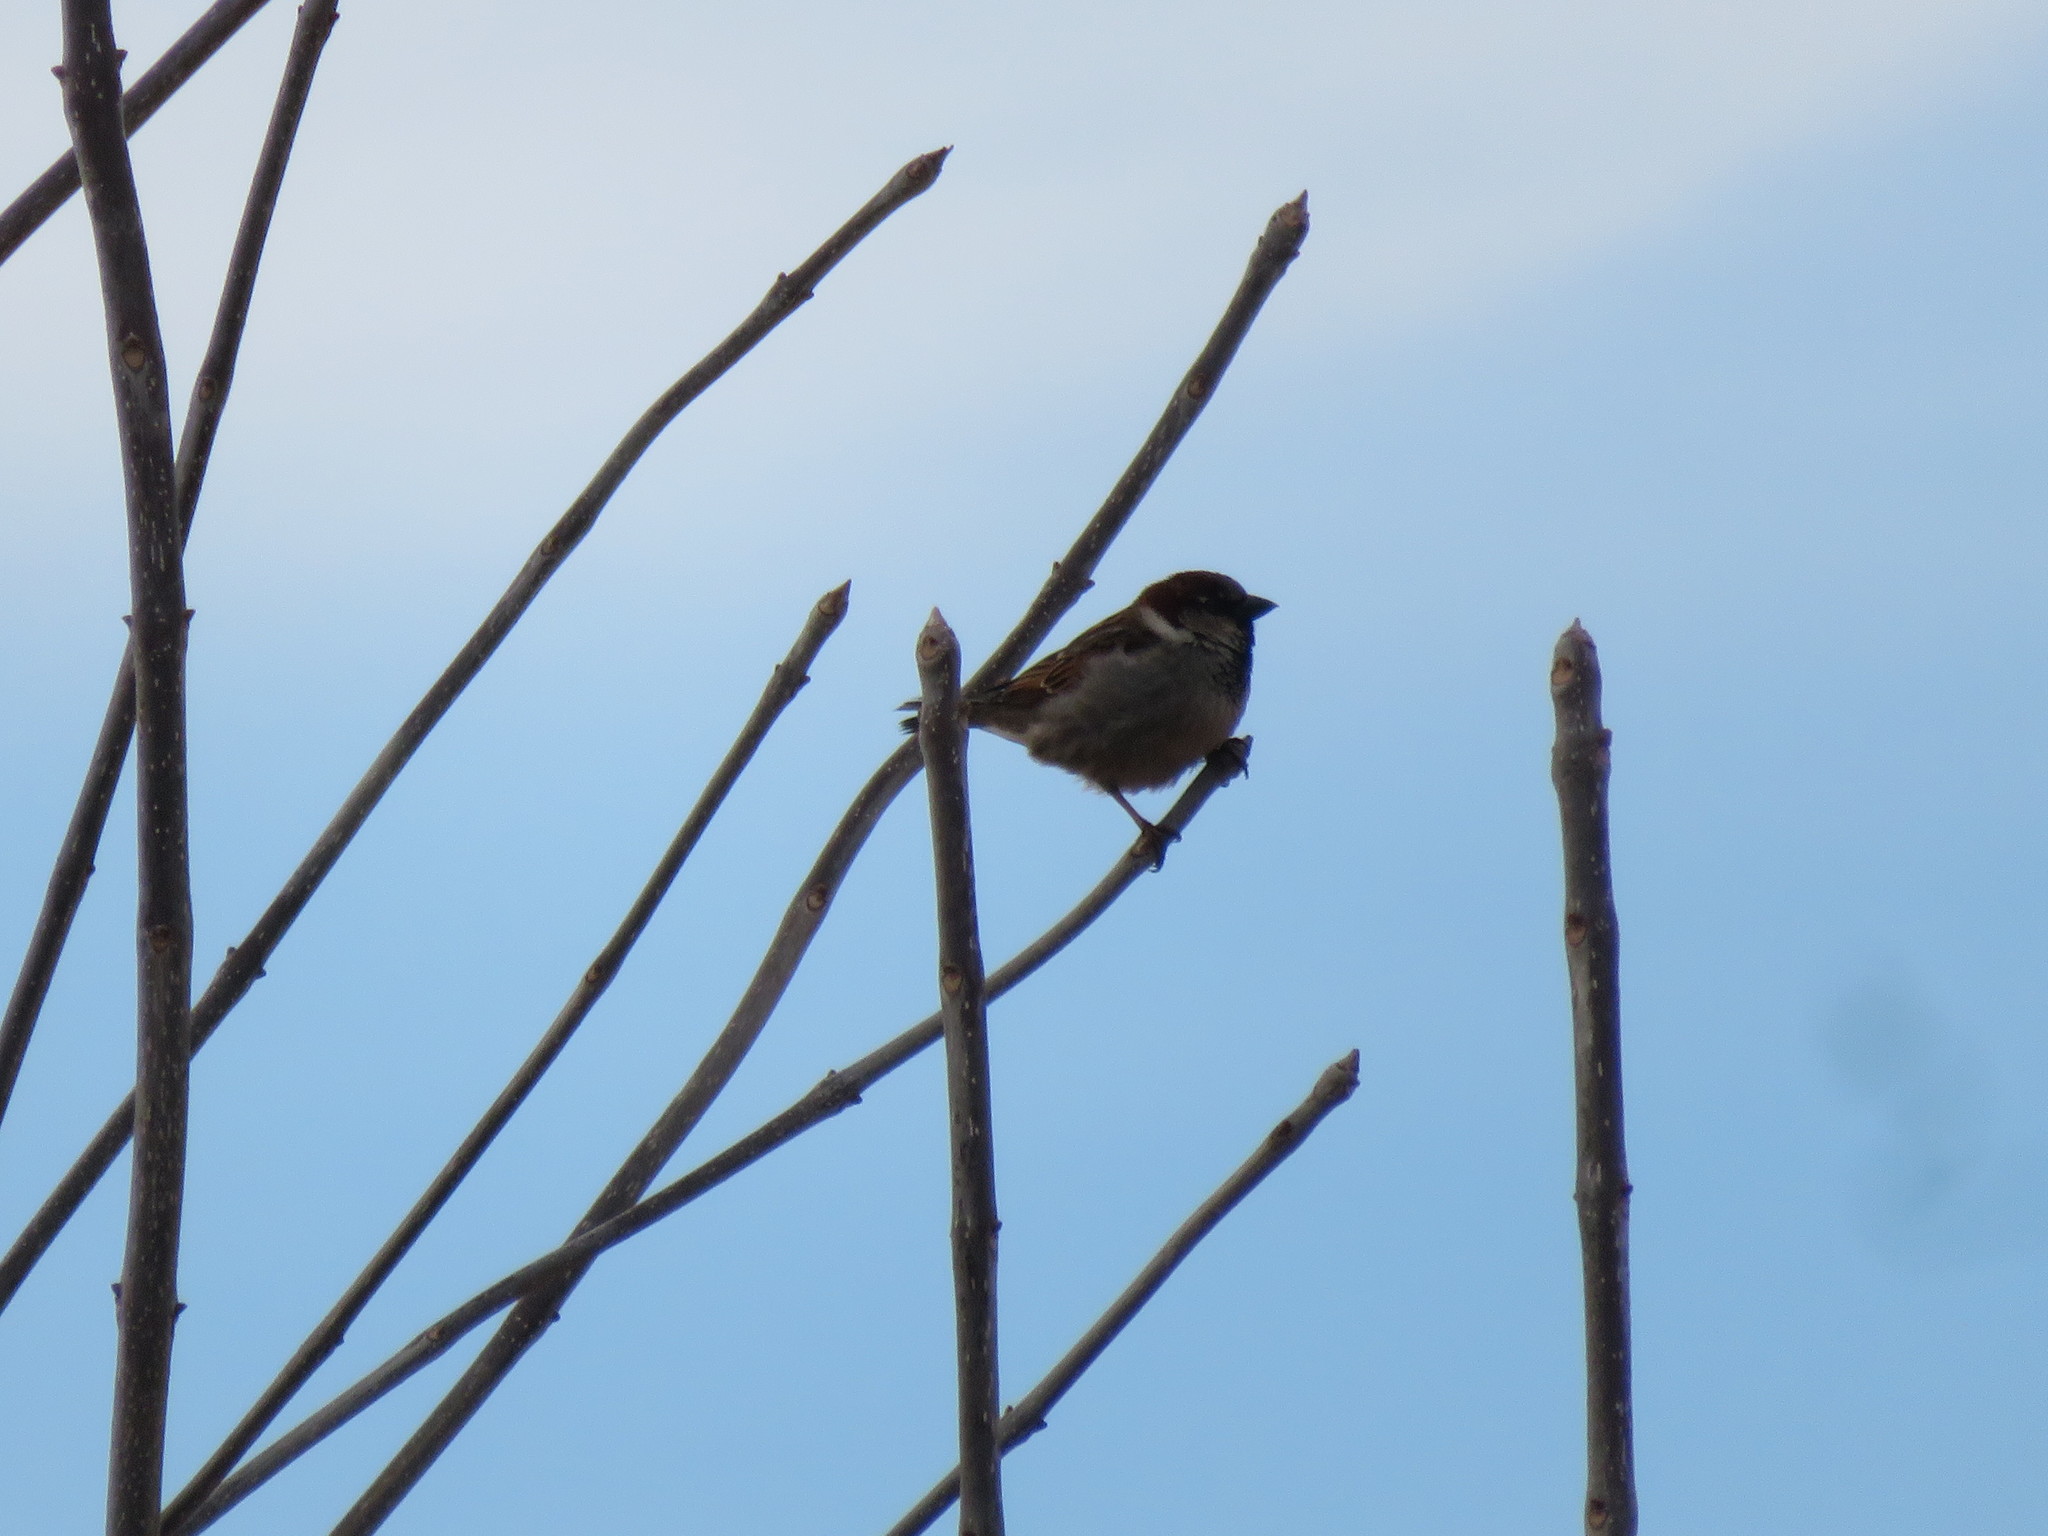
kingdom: Animalia
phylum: Chordata
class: Aves
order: Passeriformes
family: Passeridae
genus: Passer
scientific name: Passer domesticus
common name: House sparrow
